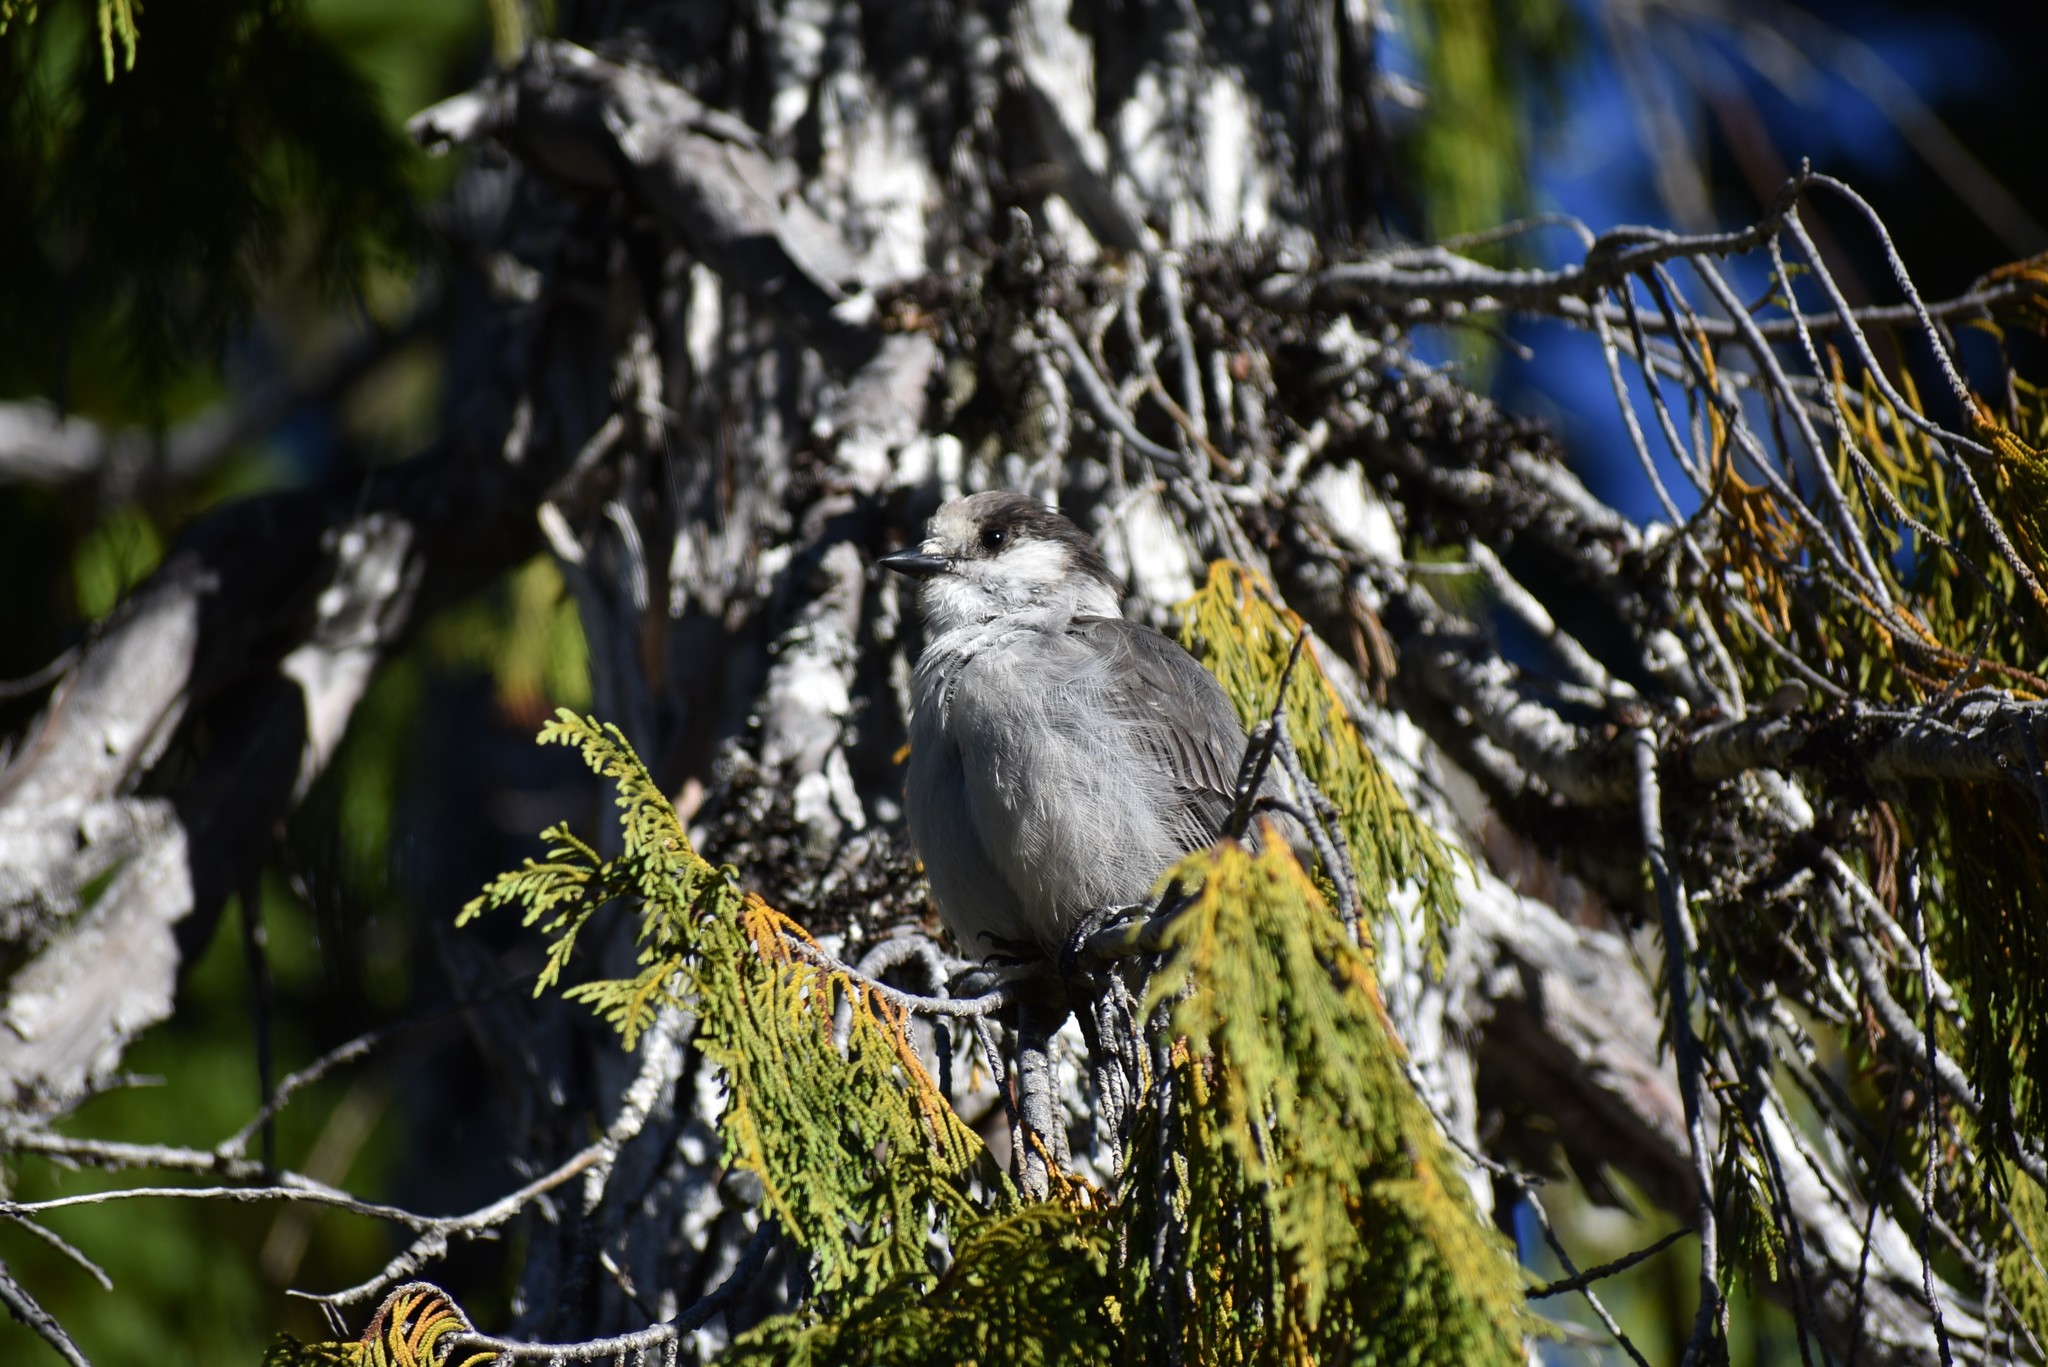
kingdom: Animalia
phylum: Chordata
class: Aves
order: Passeriformes
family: Corvidae
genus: Perisoreus
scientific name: Perisoreus canadensis
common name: Gray jay
